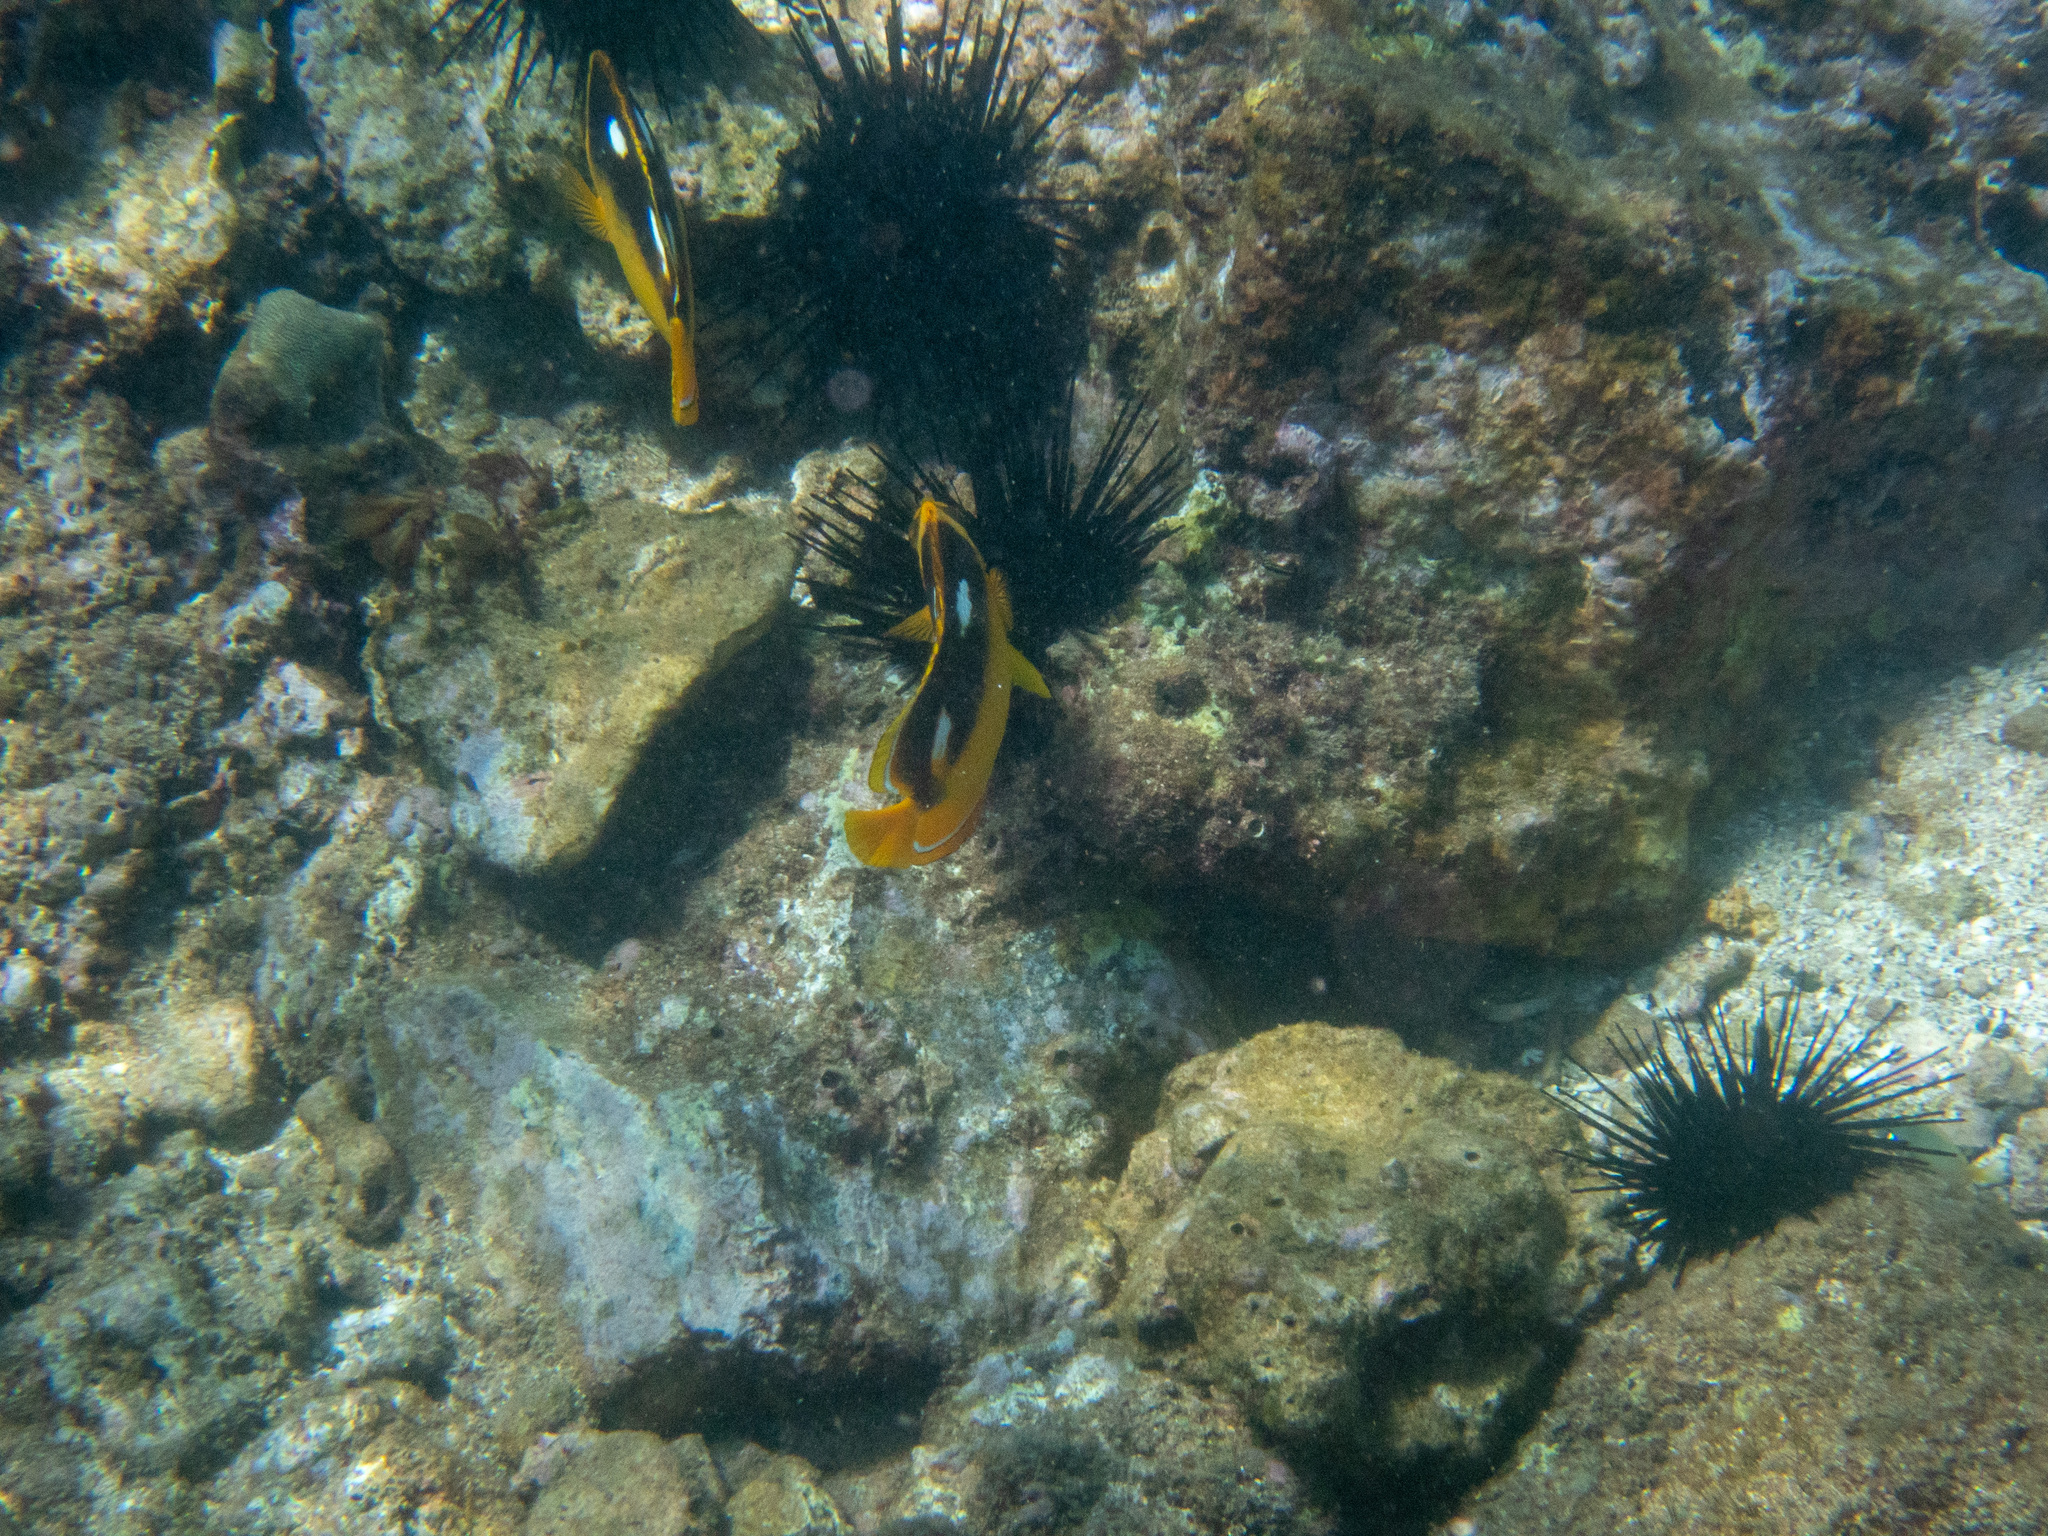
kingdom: Animalia
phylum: Chordata
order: Perciformes
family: Chaetodontidae
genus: Chaetodon
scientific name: Chaetodon quadrimaculatus
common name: Fourspot butterflyfish
